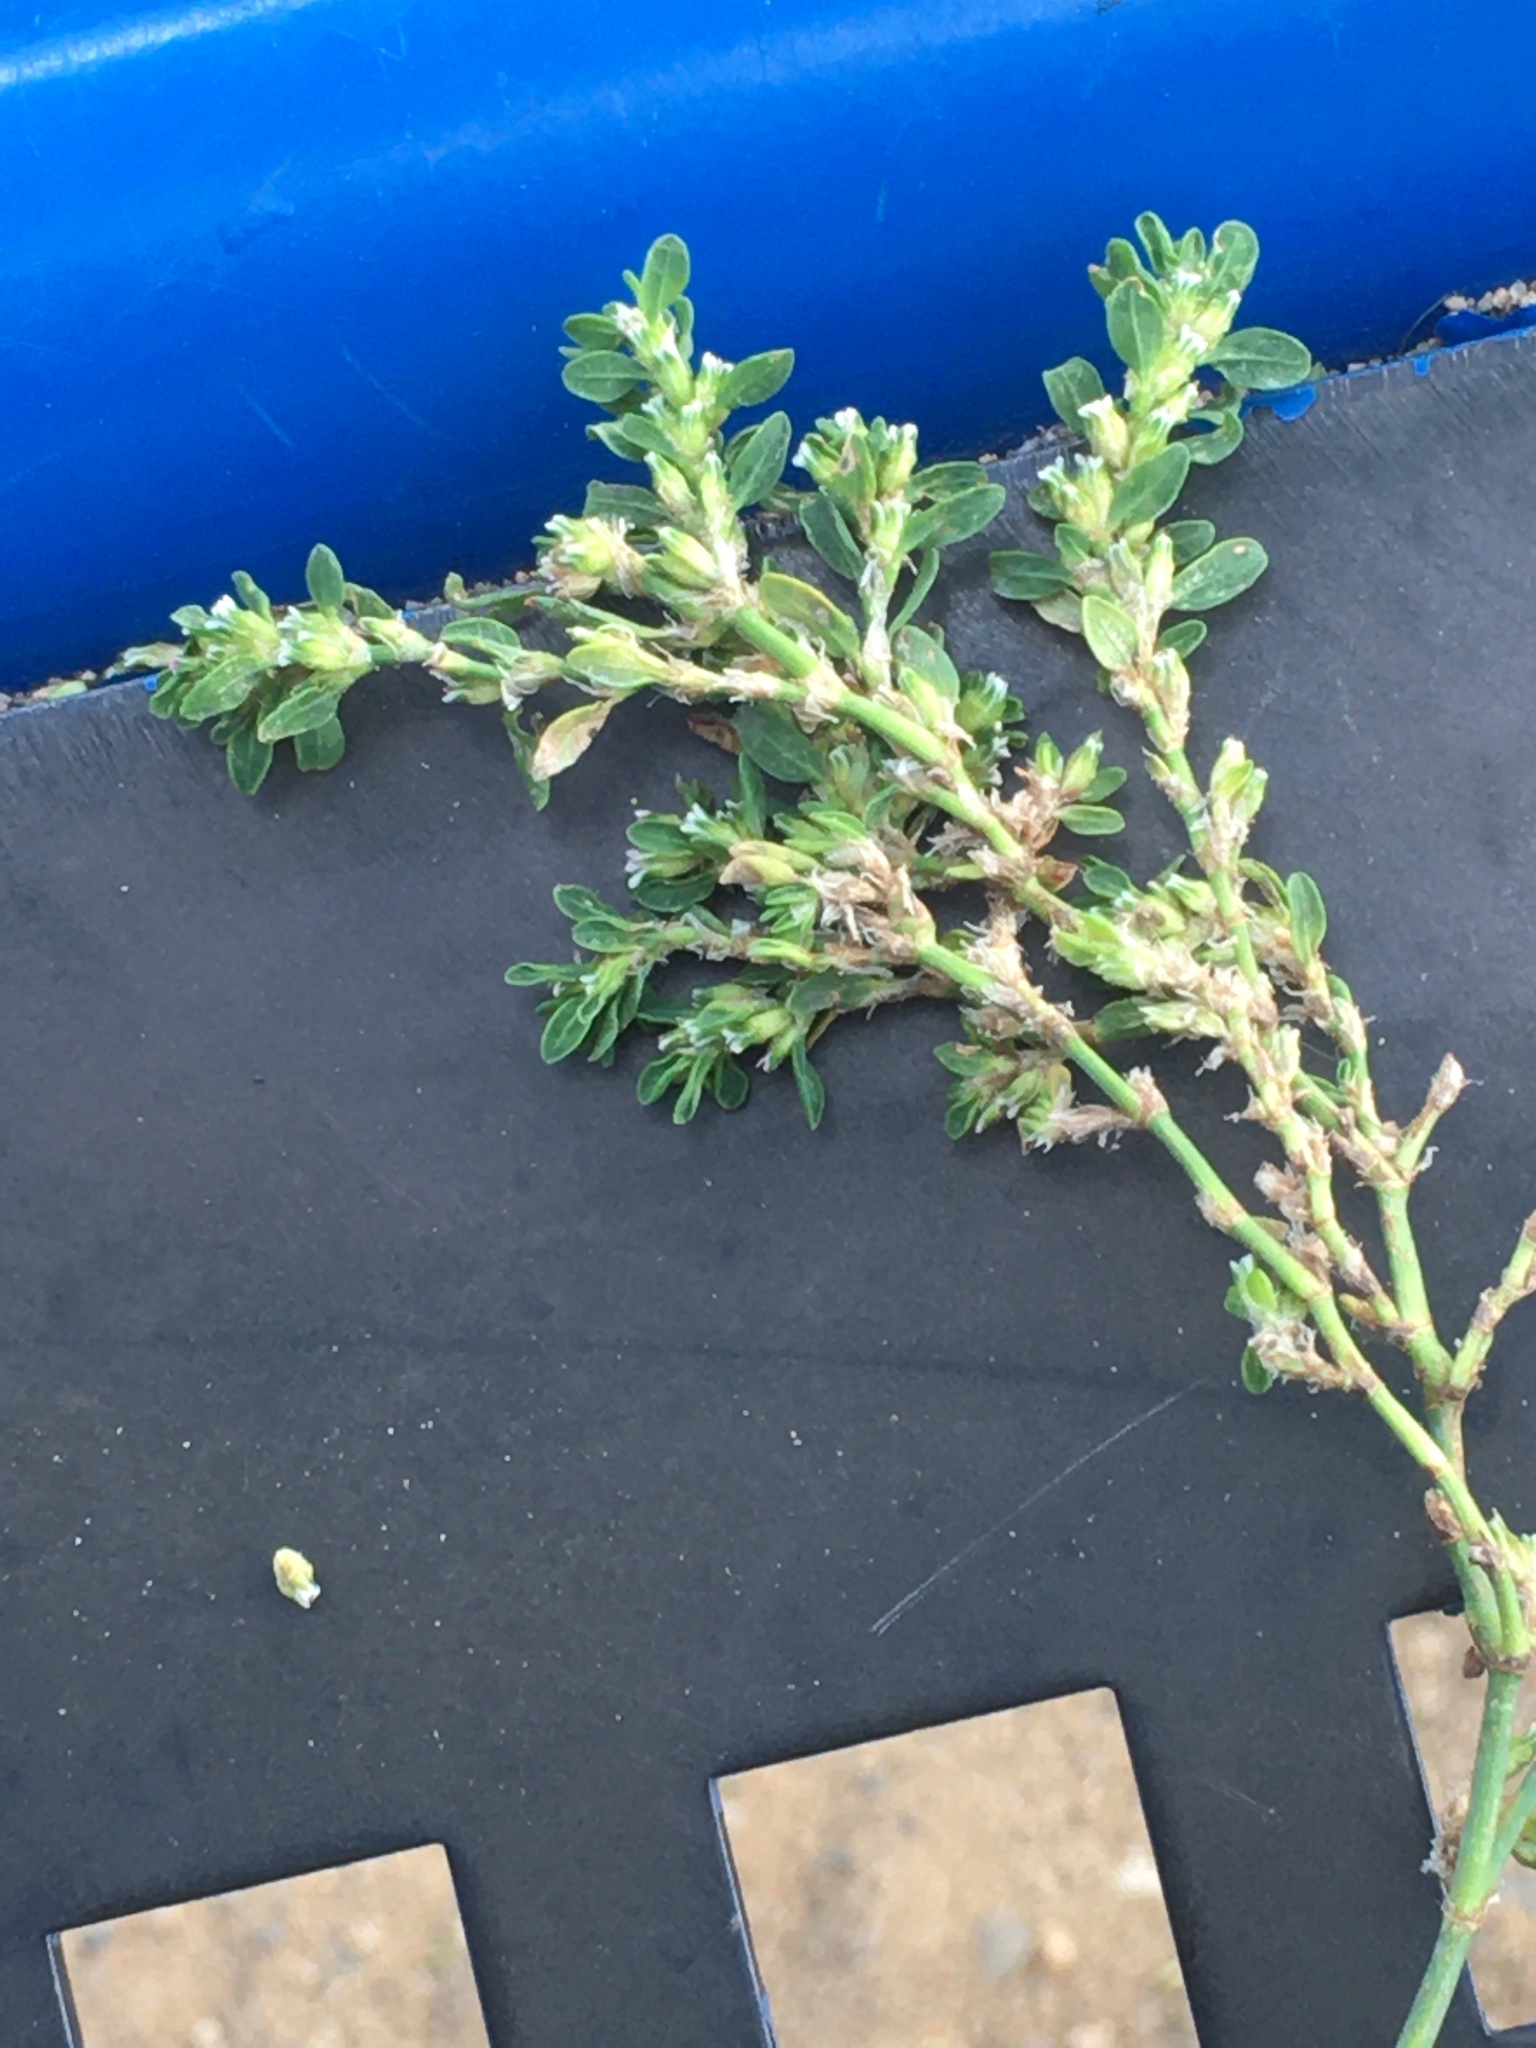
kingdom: Plantae
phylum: Tracheophyta
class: Magnoliopsida
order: Caryophyllales
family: Polygonaceae
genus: Polygonum
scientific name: Polygonum aviculare
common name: Prostrate knotweed
